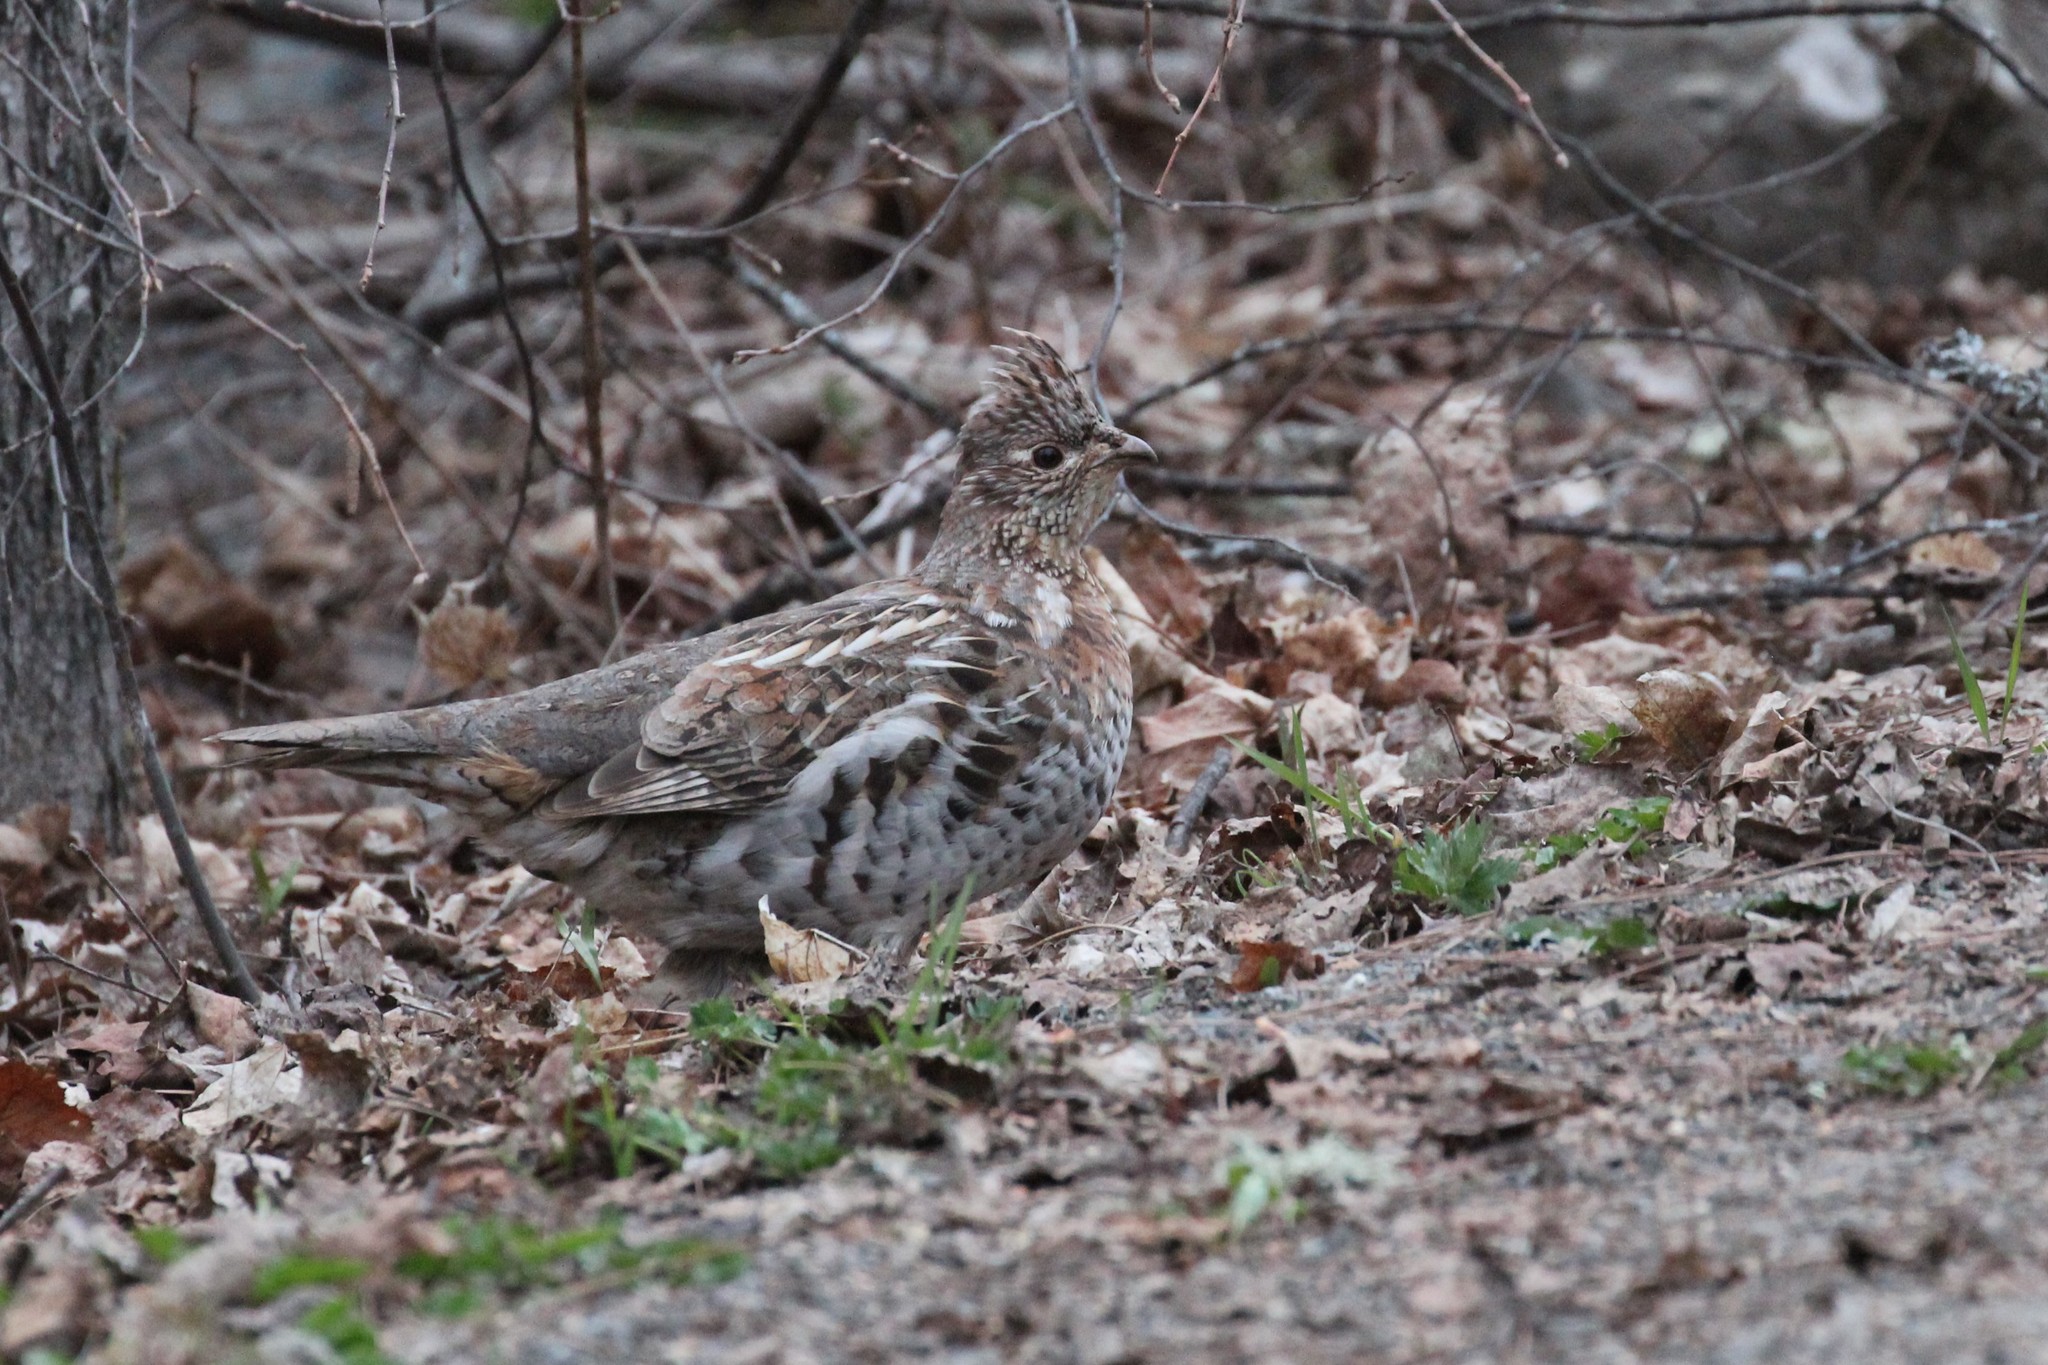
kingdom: Animalia
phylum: Chordata
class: Aves
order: Galliformes
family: Phasianidae
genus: Bonasa
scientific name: Bonasa umbellus
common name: Ruffed grouse
